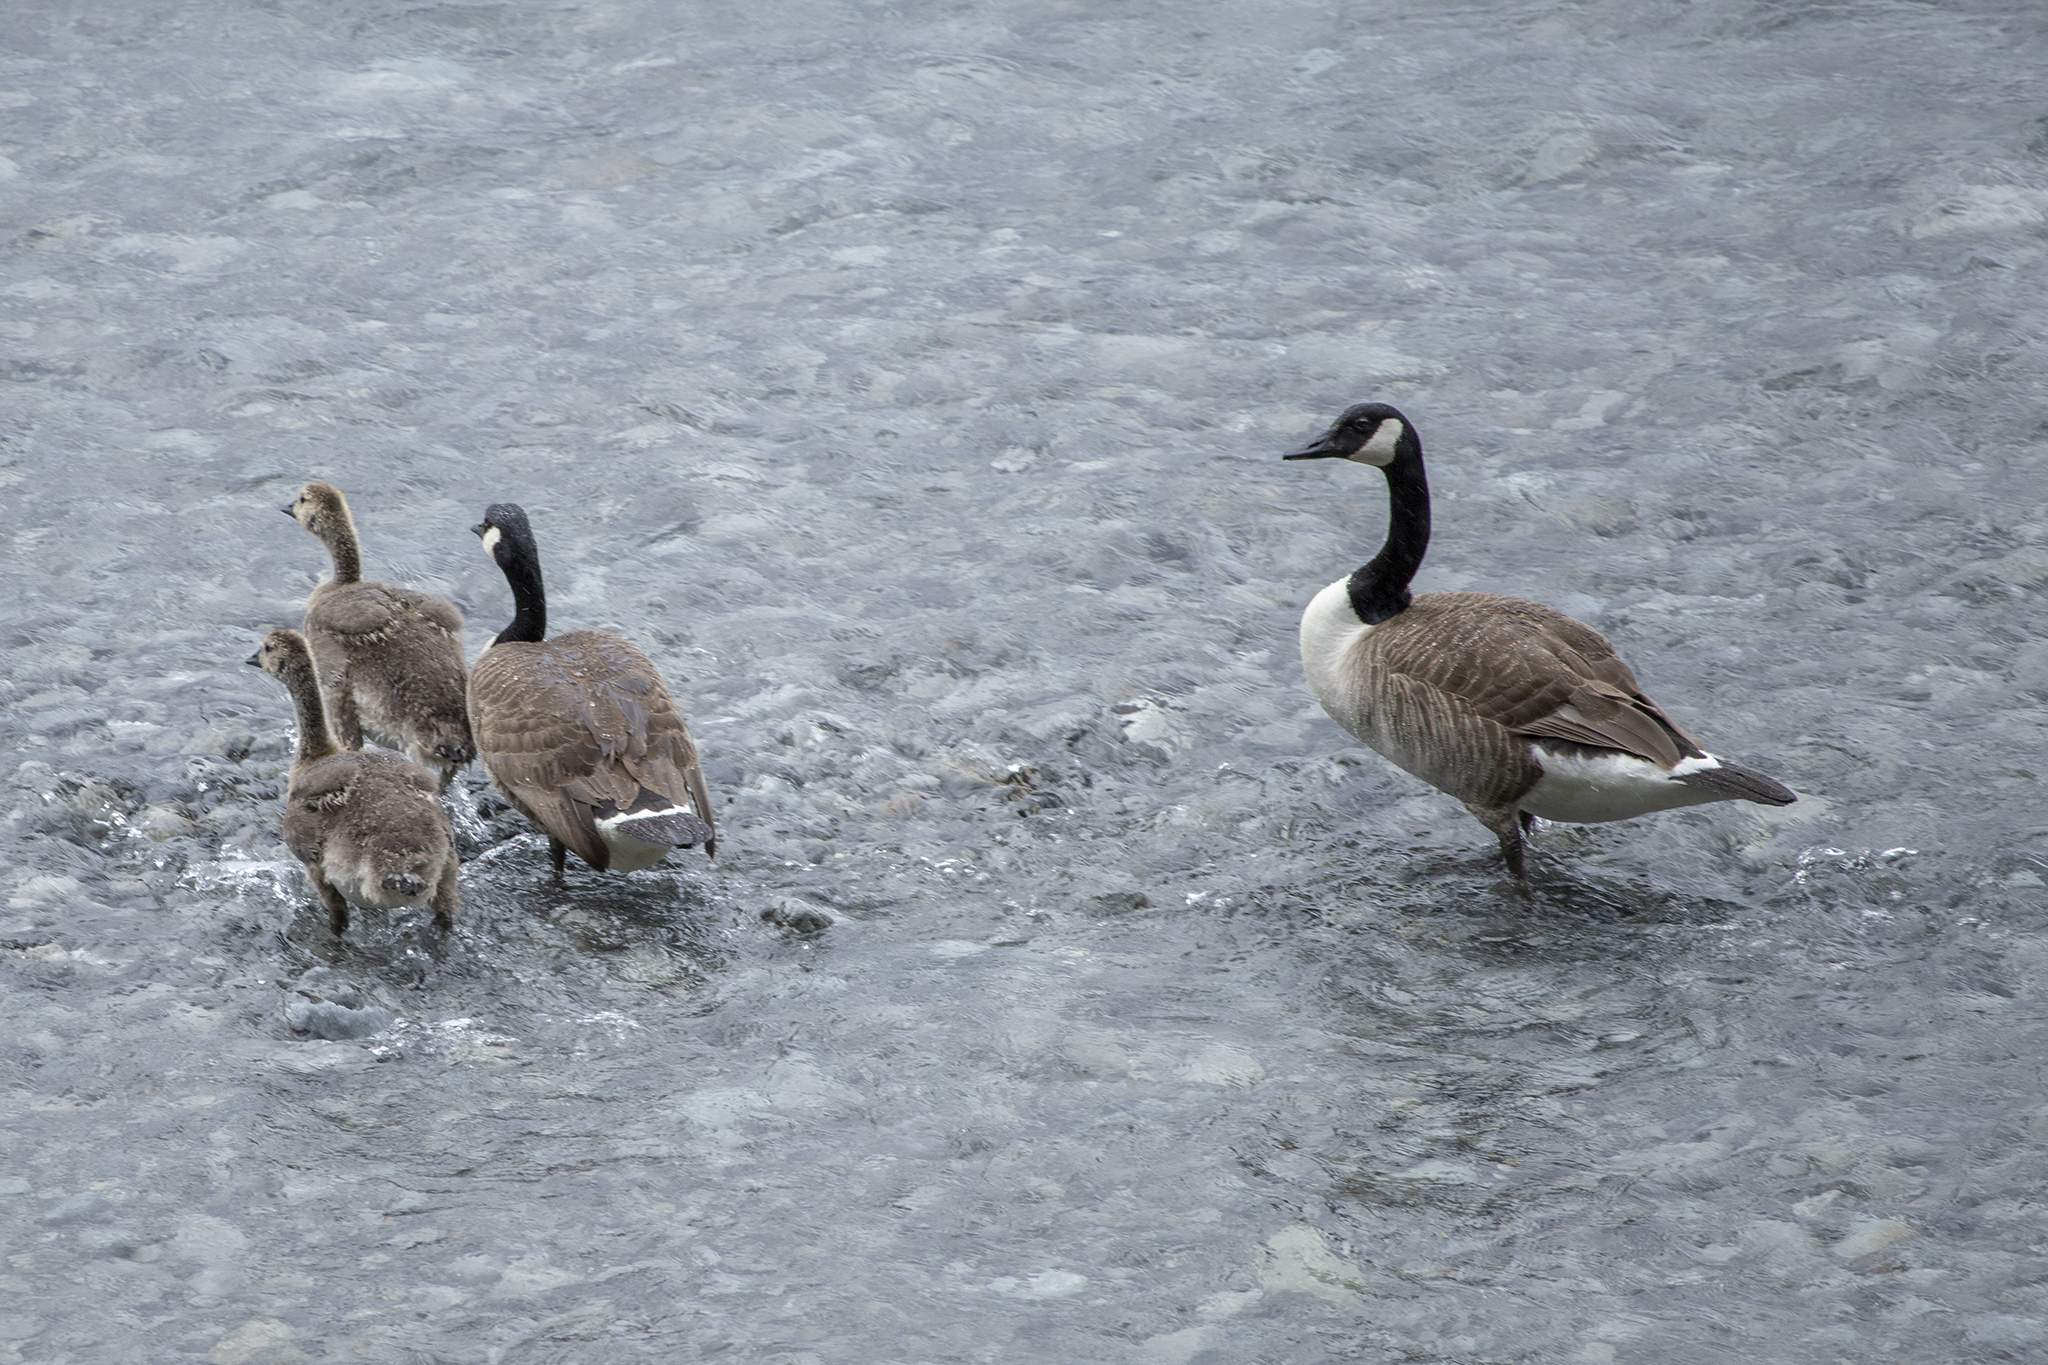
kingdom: Animalia
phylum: Chordata
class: Aves
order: Anseriformes
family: Anatidae
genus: Branta
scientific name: Branta canadensis
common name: Canada goose
